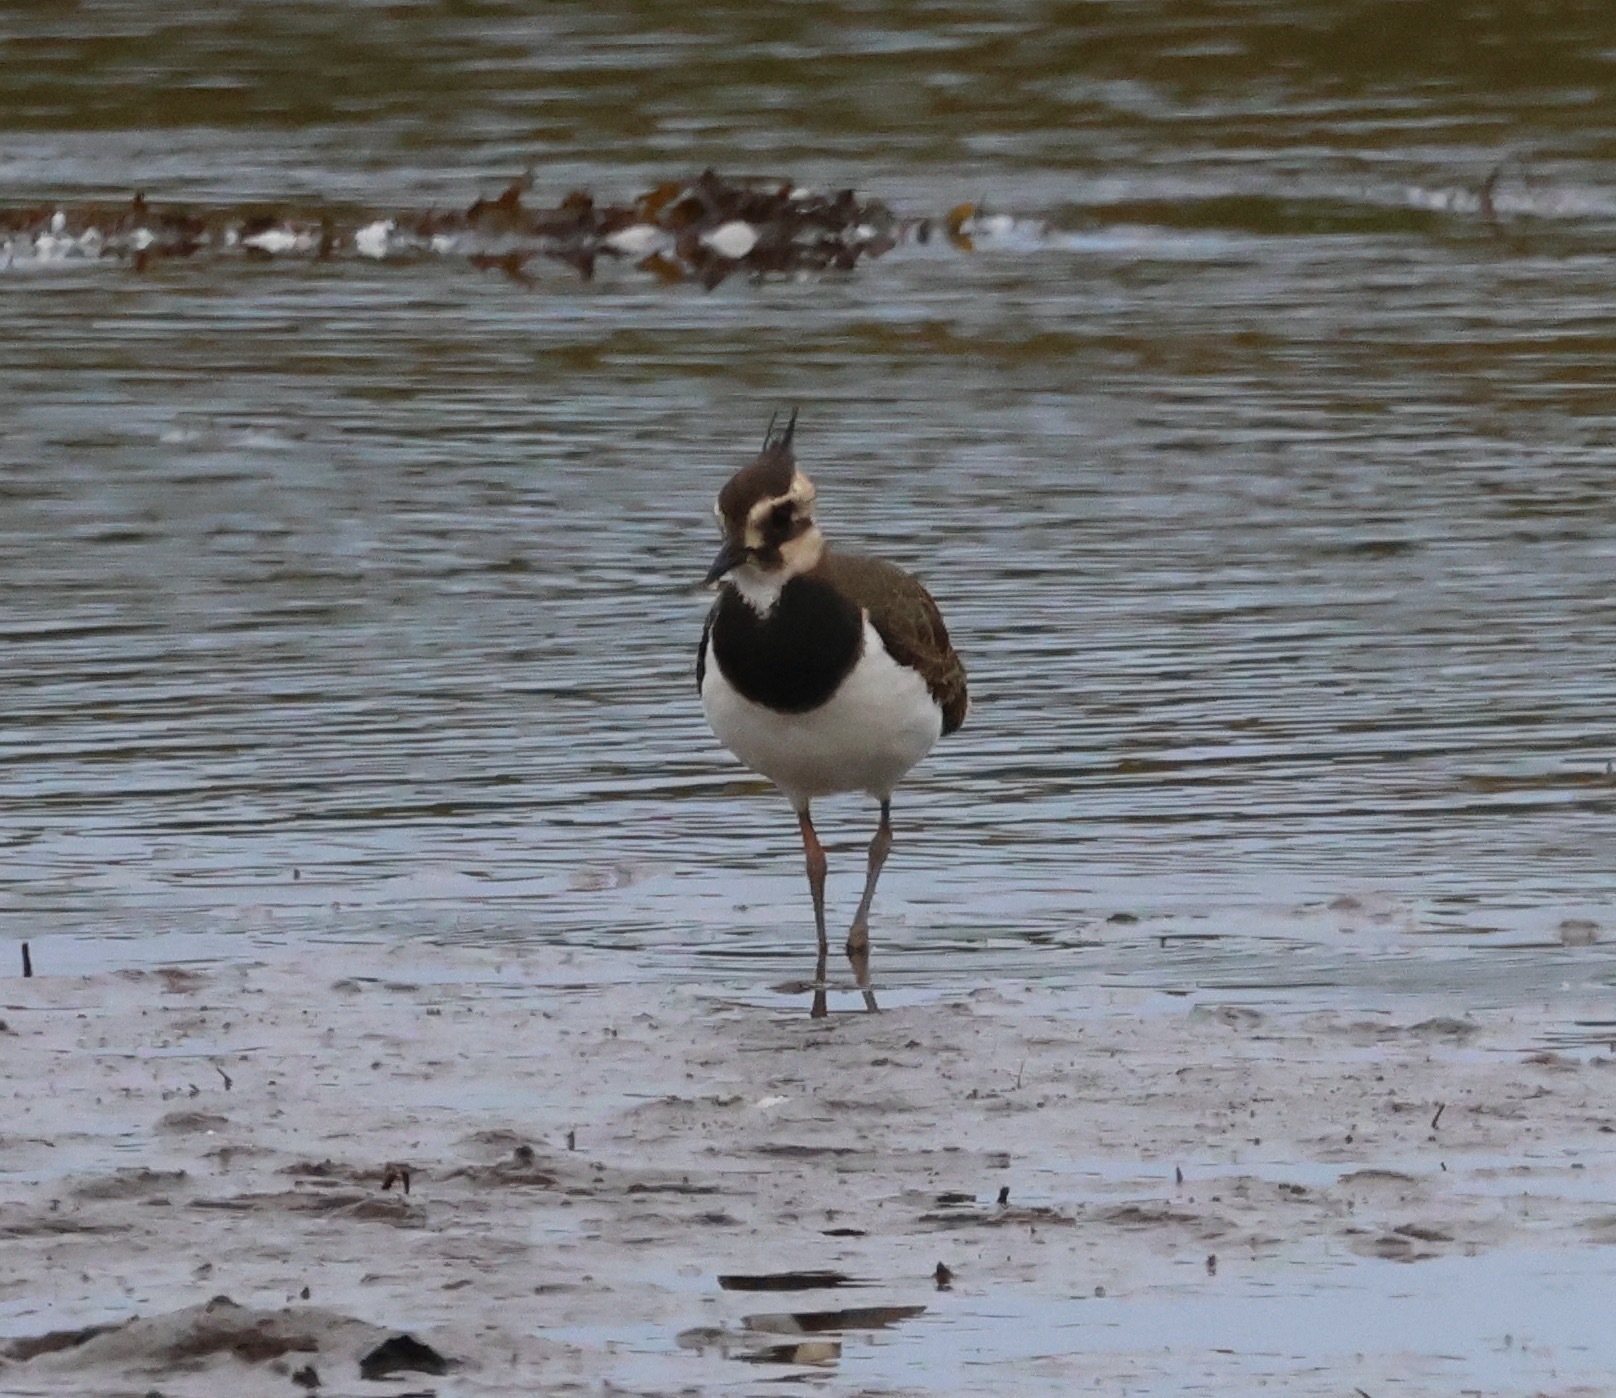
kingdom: Animalia
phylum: Chordata
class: Aves
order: Charadriiformes
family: Charadriidae
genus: Vanellus
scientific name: Vanellus vanellus
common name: Northern lapwing
